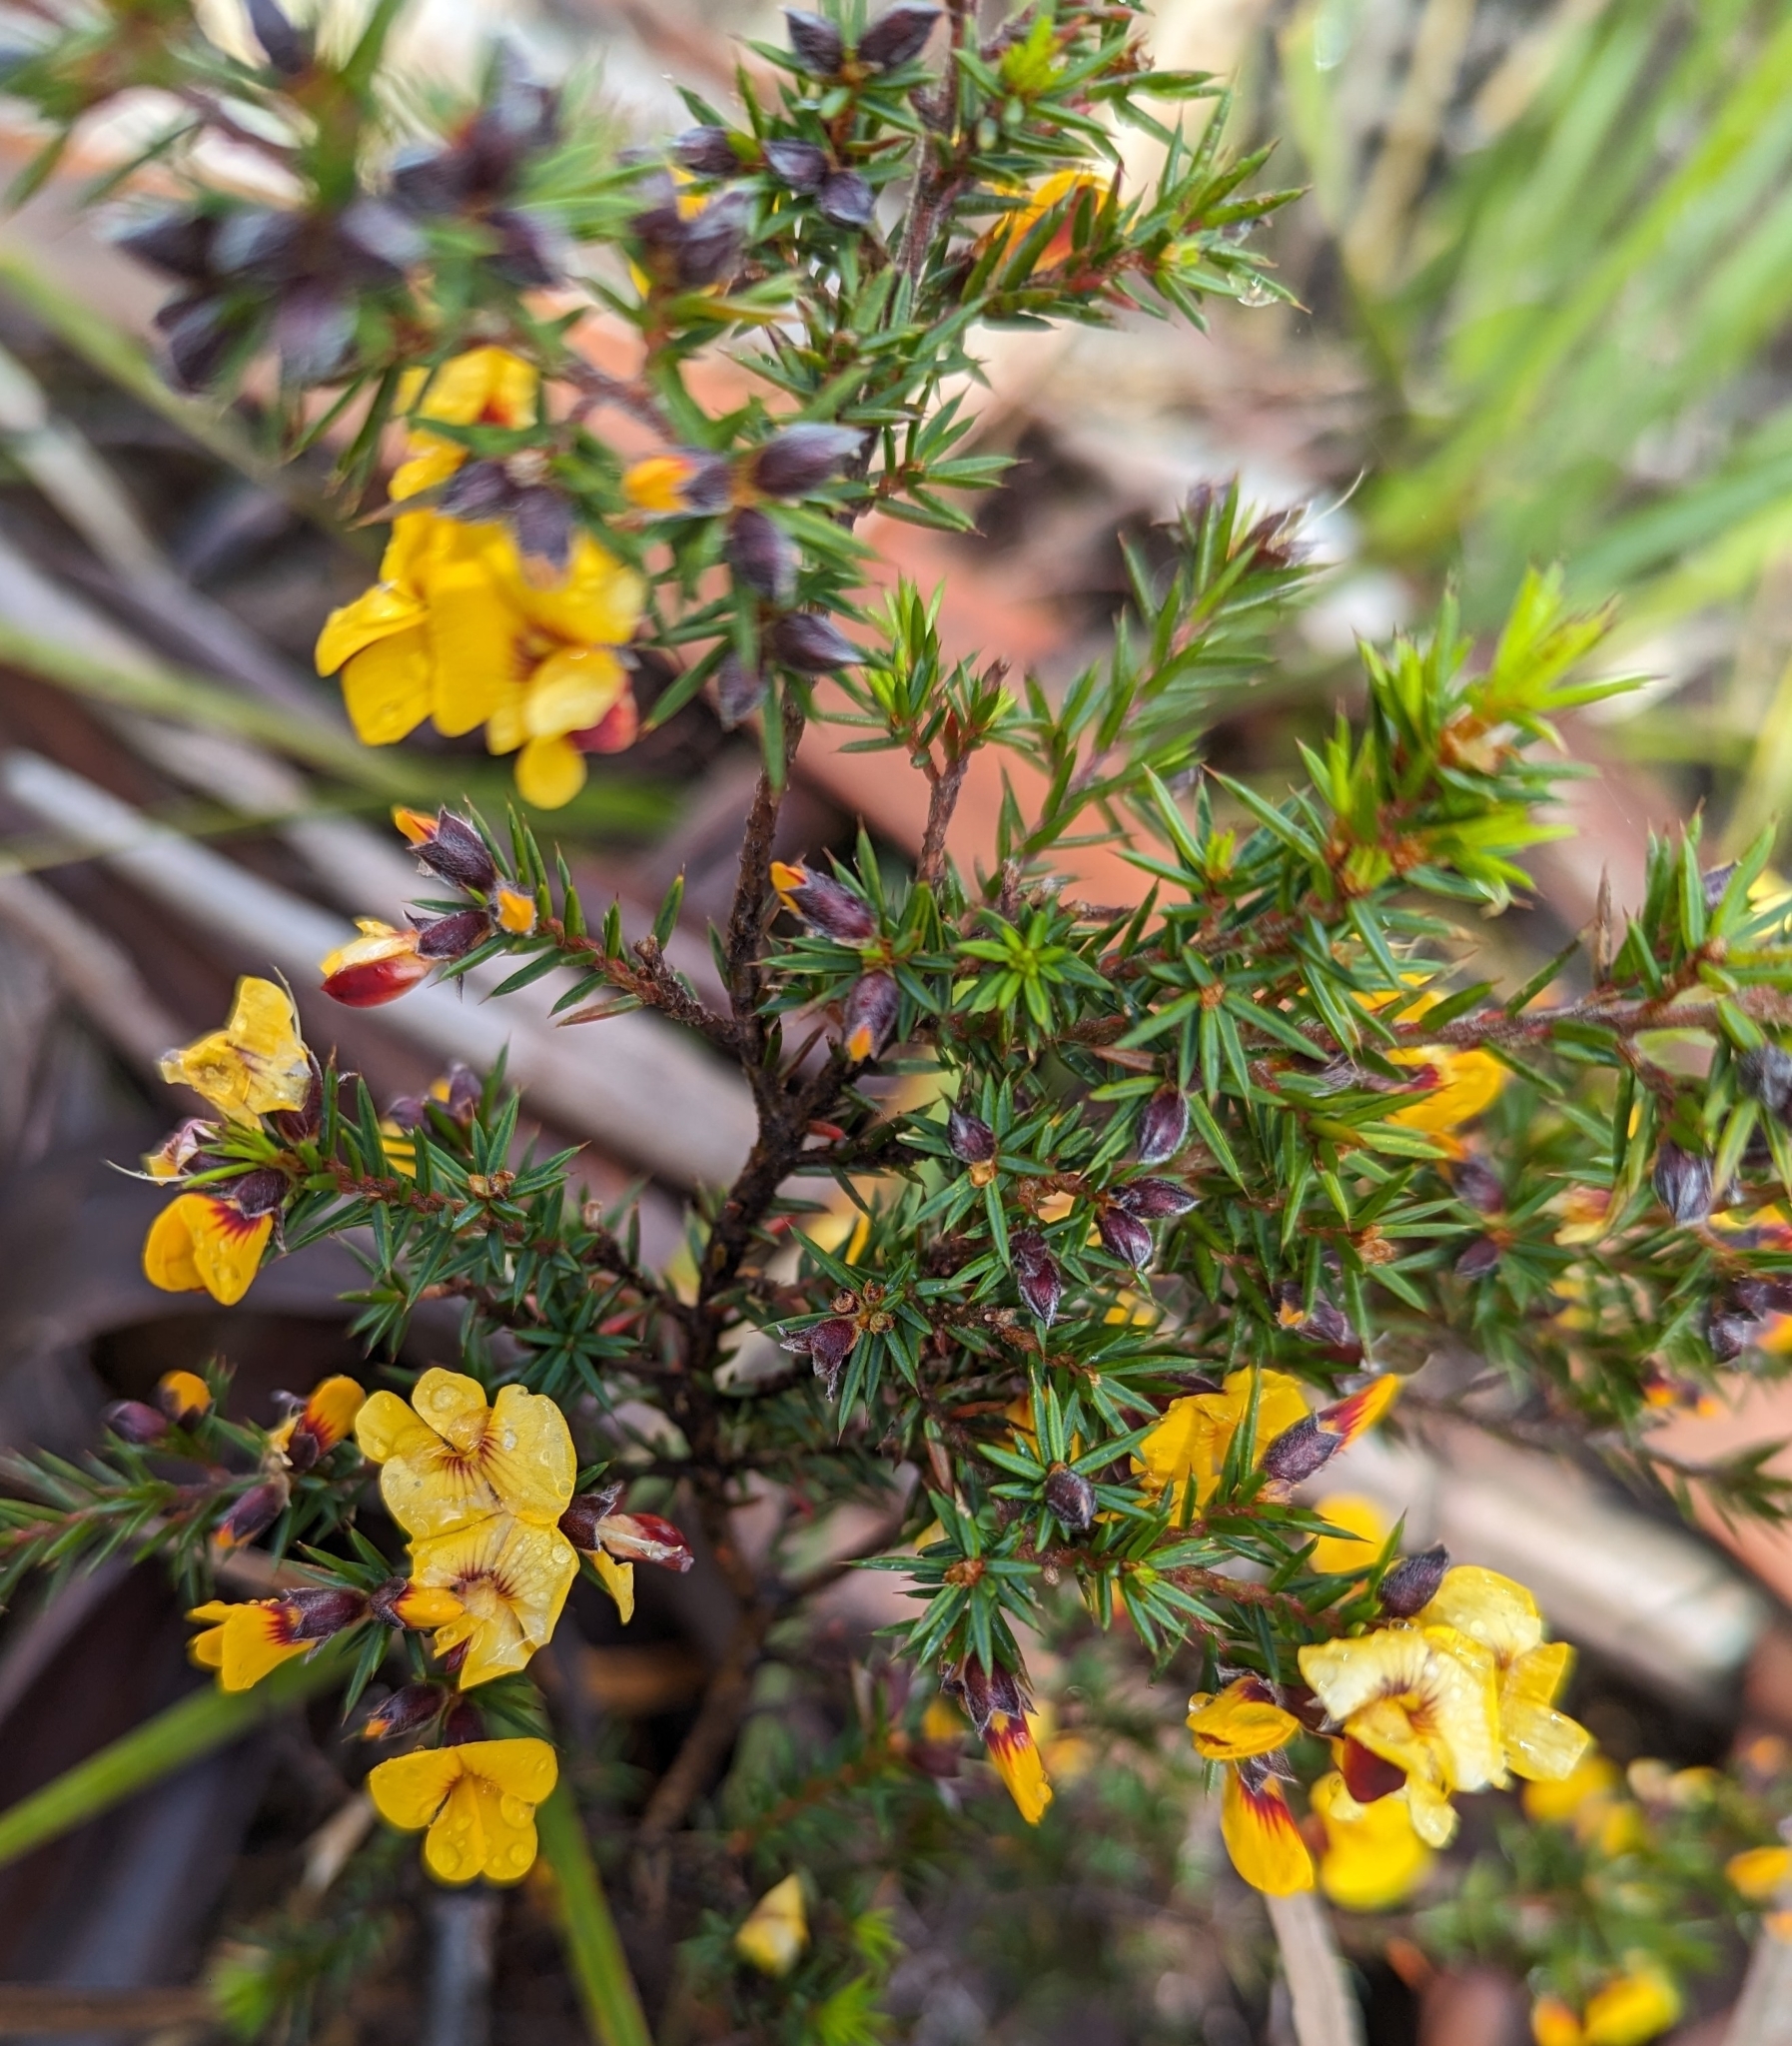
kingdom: Plantae
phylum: Tracheophyta
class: Magnoliopsida
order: Fabales
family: Fabaceae
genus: Pultenaea
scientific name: Pultenaea juniperina
